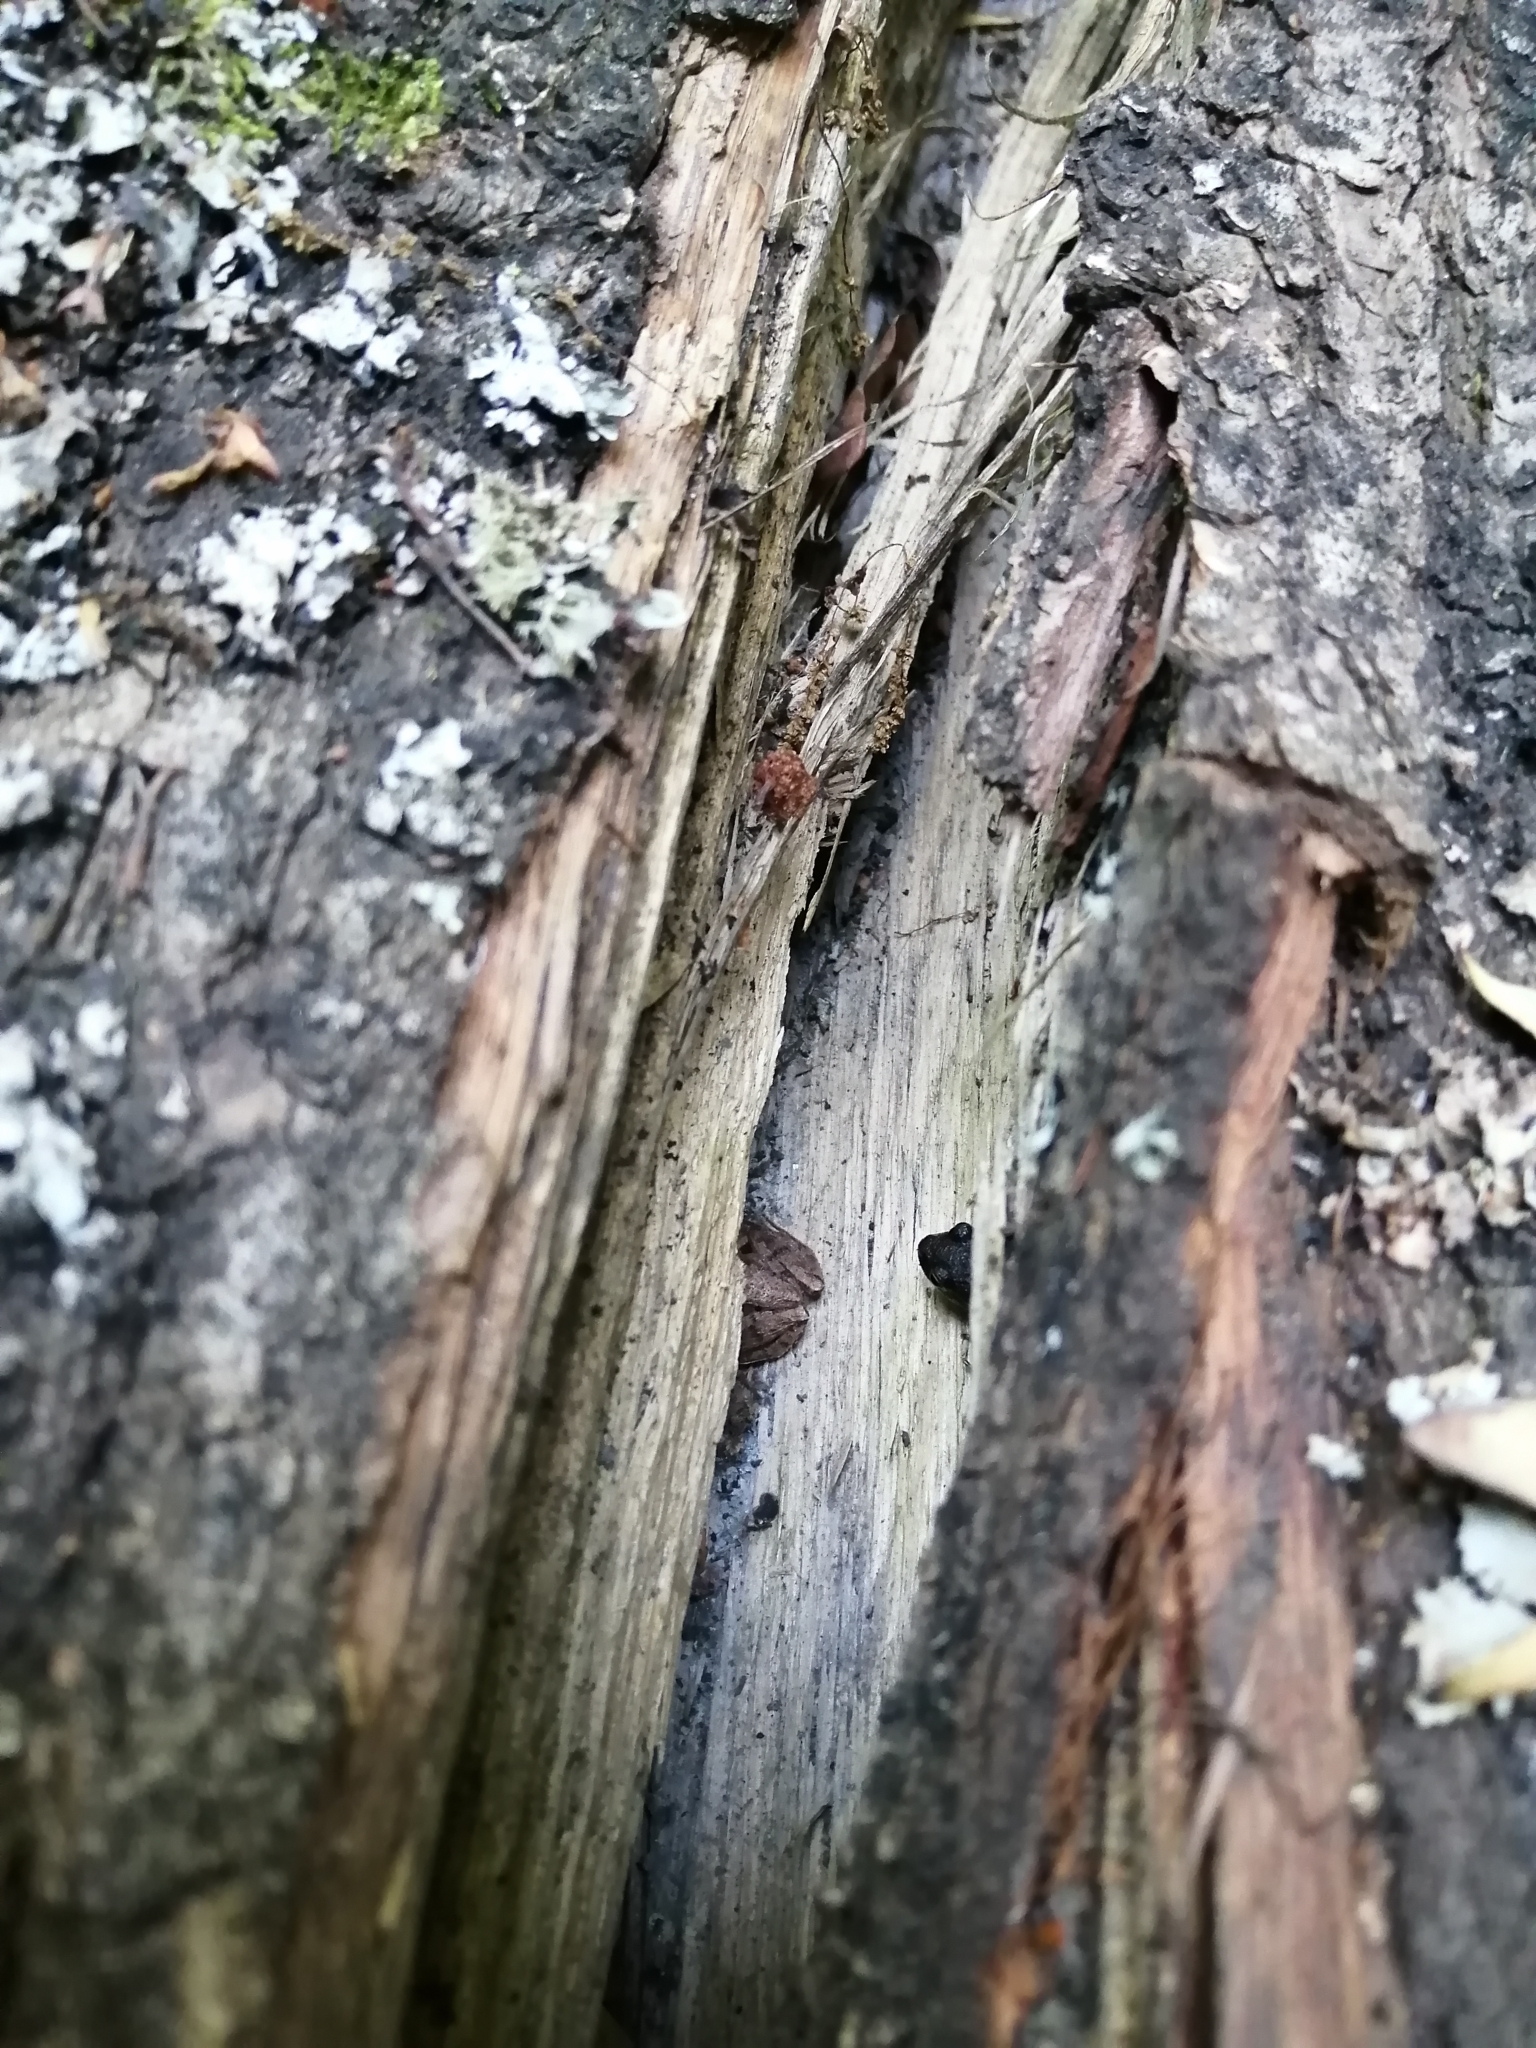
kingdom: Animalia
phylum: Chordata
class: Amphibia
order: Anura
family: Batrachylidae
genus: Batrachyla
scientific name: Batrachyla taeniata
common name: Banded wood frog
